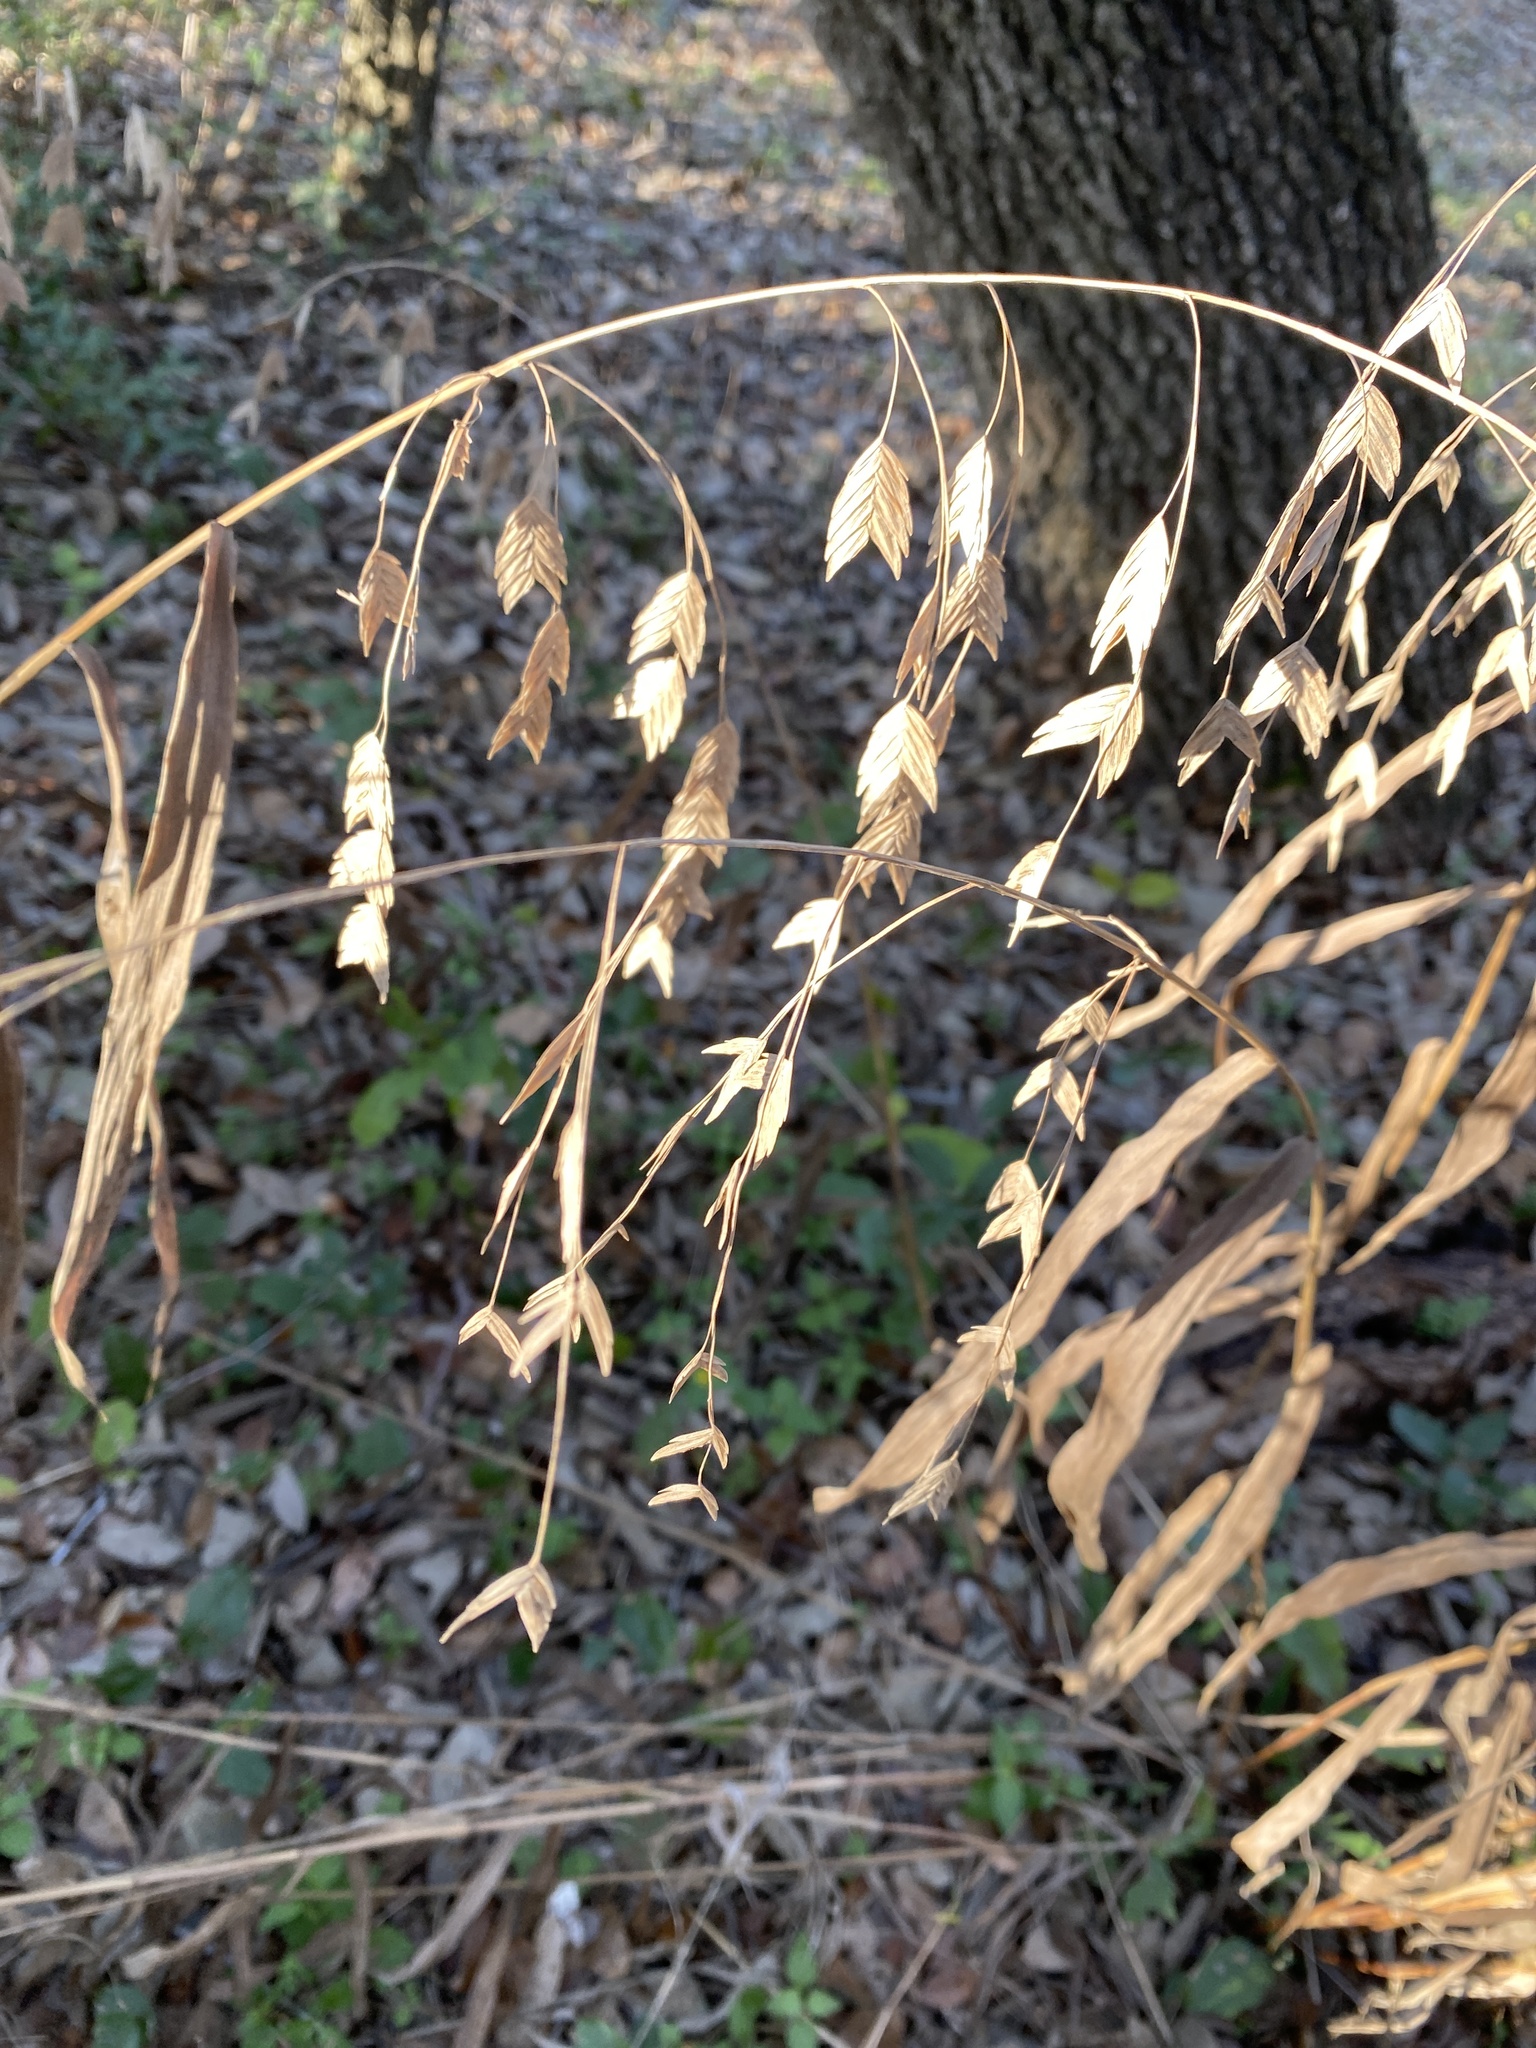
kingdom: Plantae
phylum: Tracheophyta
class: Liliopsida
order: Poales
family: Poaceae
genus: Chasmanthium
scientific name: Chasmanthium latifolium
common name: Broad-leaved chasmanthium
